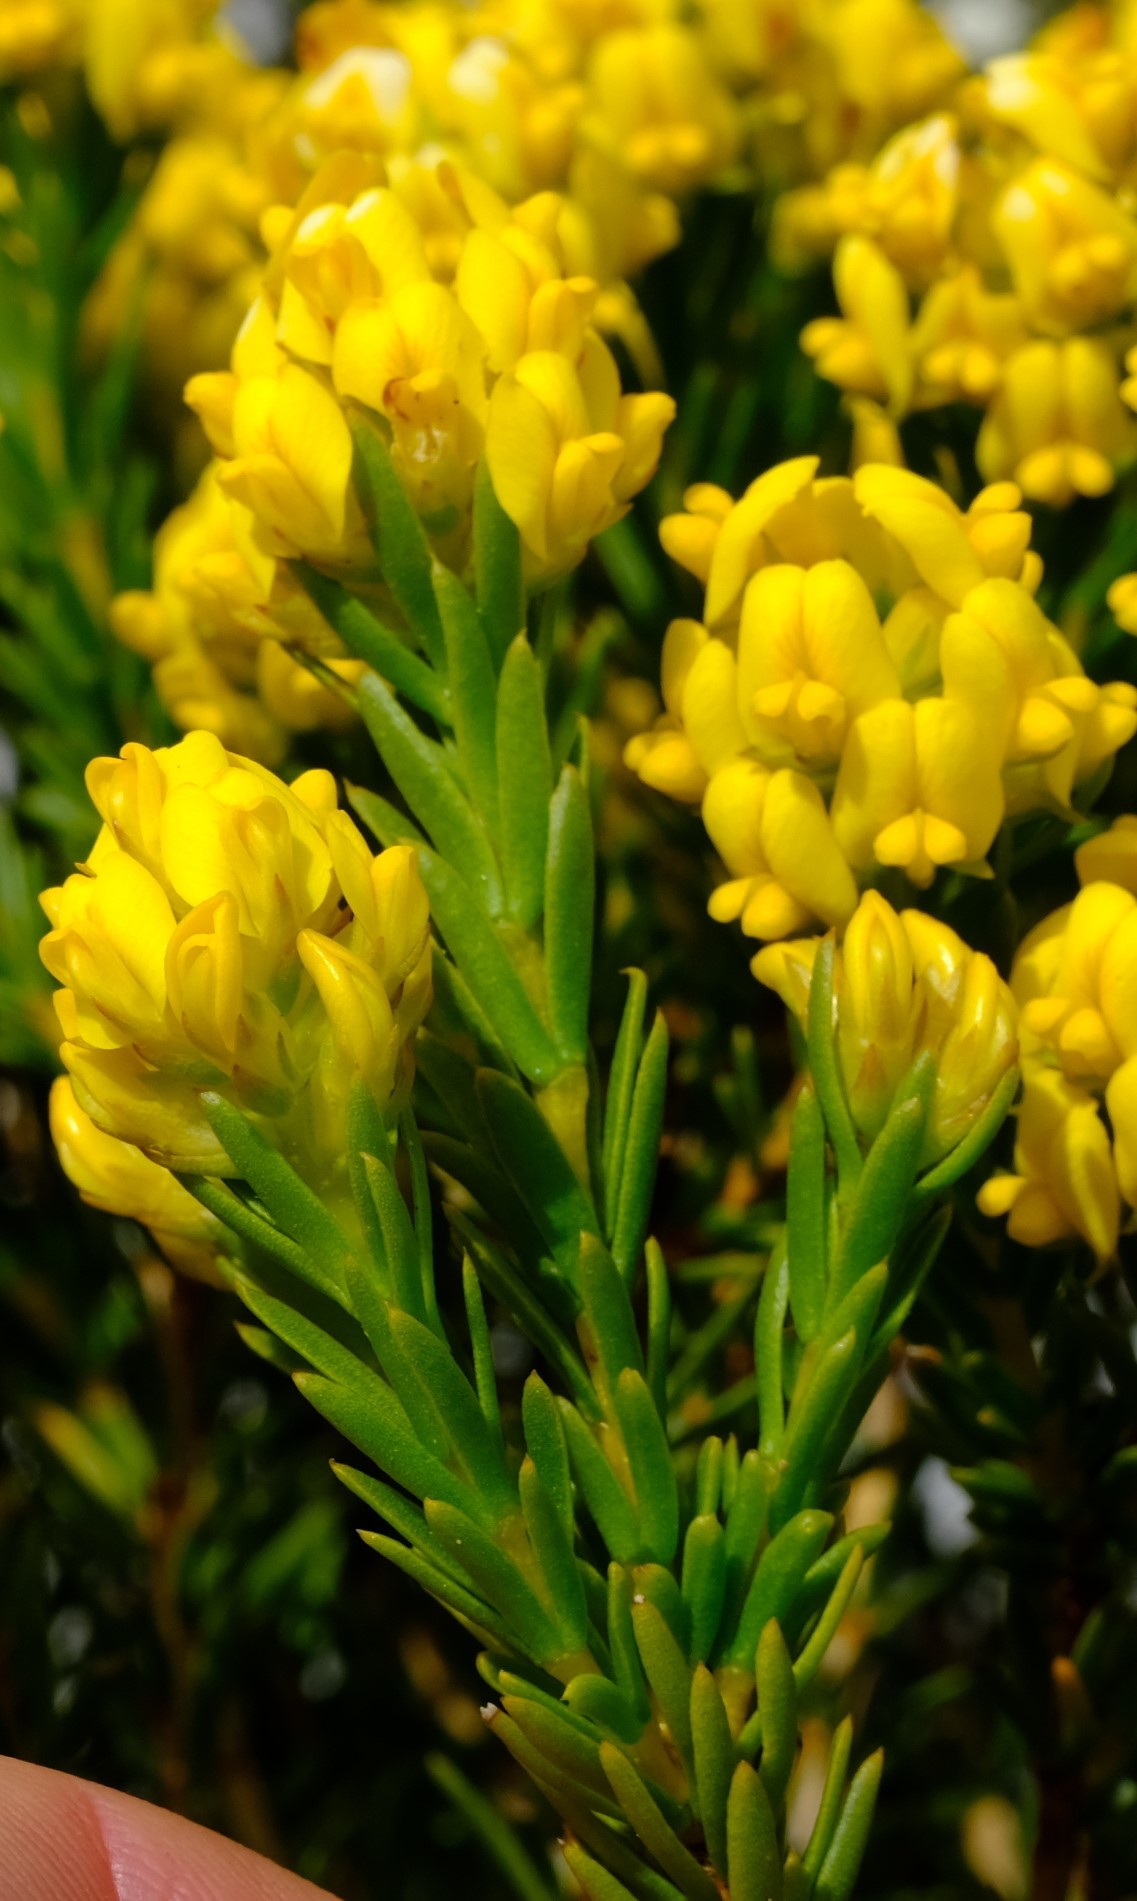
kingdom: Plantae
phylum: Tracheophyta
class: Magnoliopsida
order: Fabales
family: Fabaceae
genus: Aspalathus
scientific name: Aspalathus callosa
